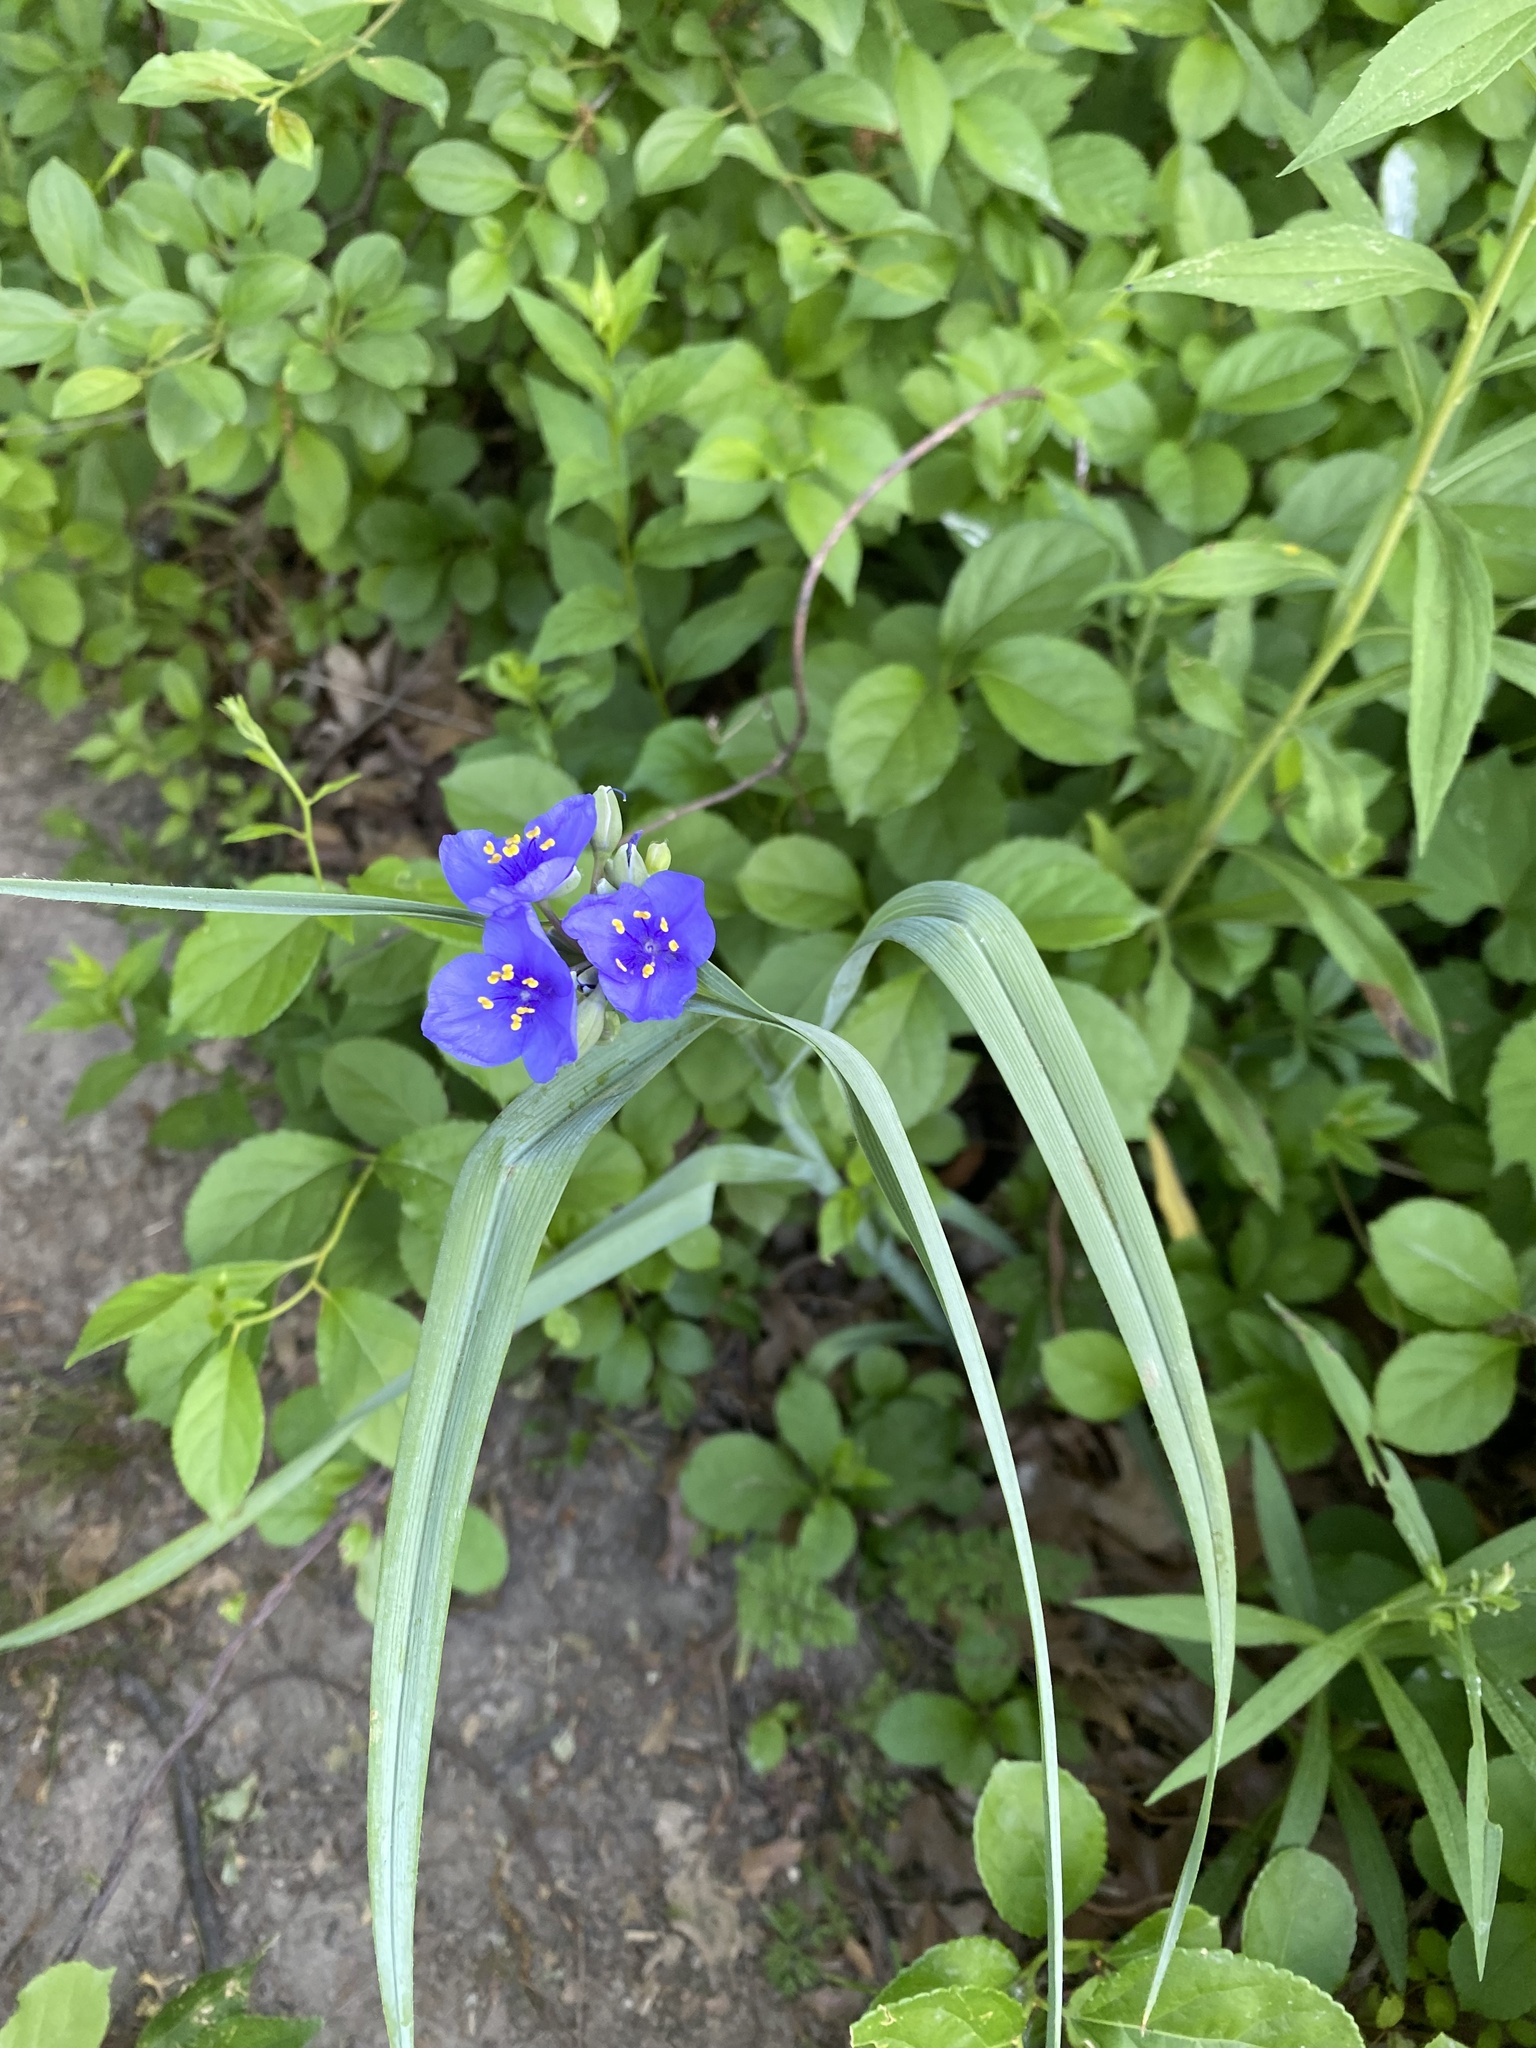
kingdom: Plantae
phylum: Tracheophyta
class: Liliopsida
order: Commelinales
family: Commelinaceae
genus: Tradescantia
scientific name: Tradescantia ohiensis
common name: Ohio spiderwort
